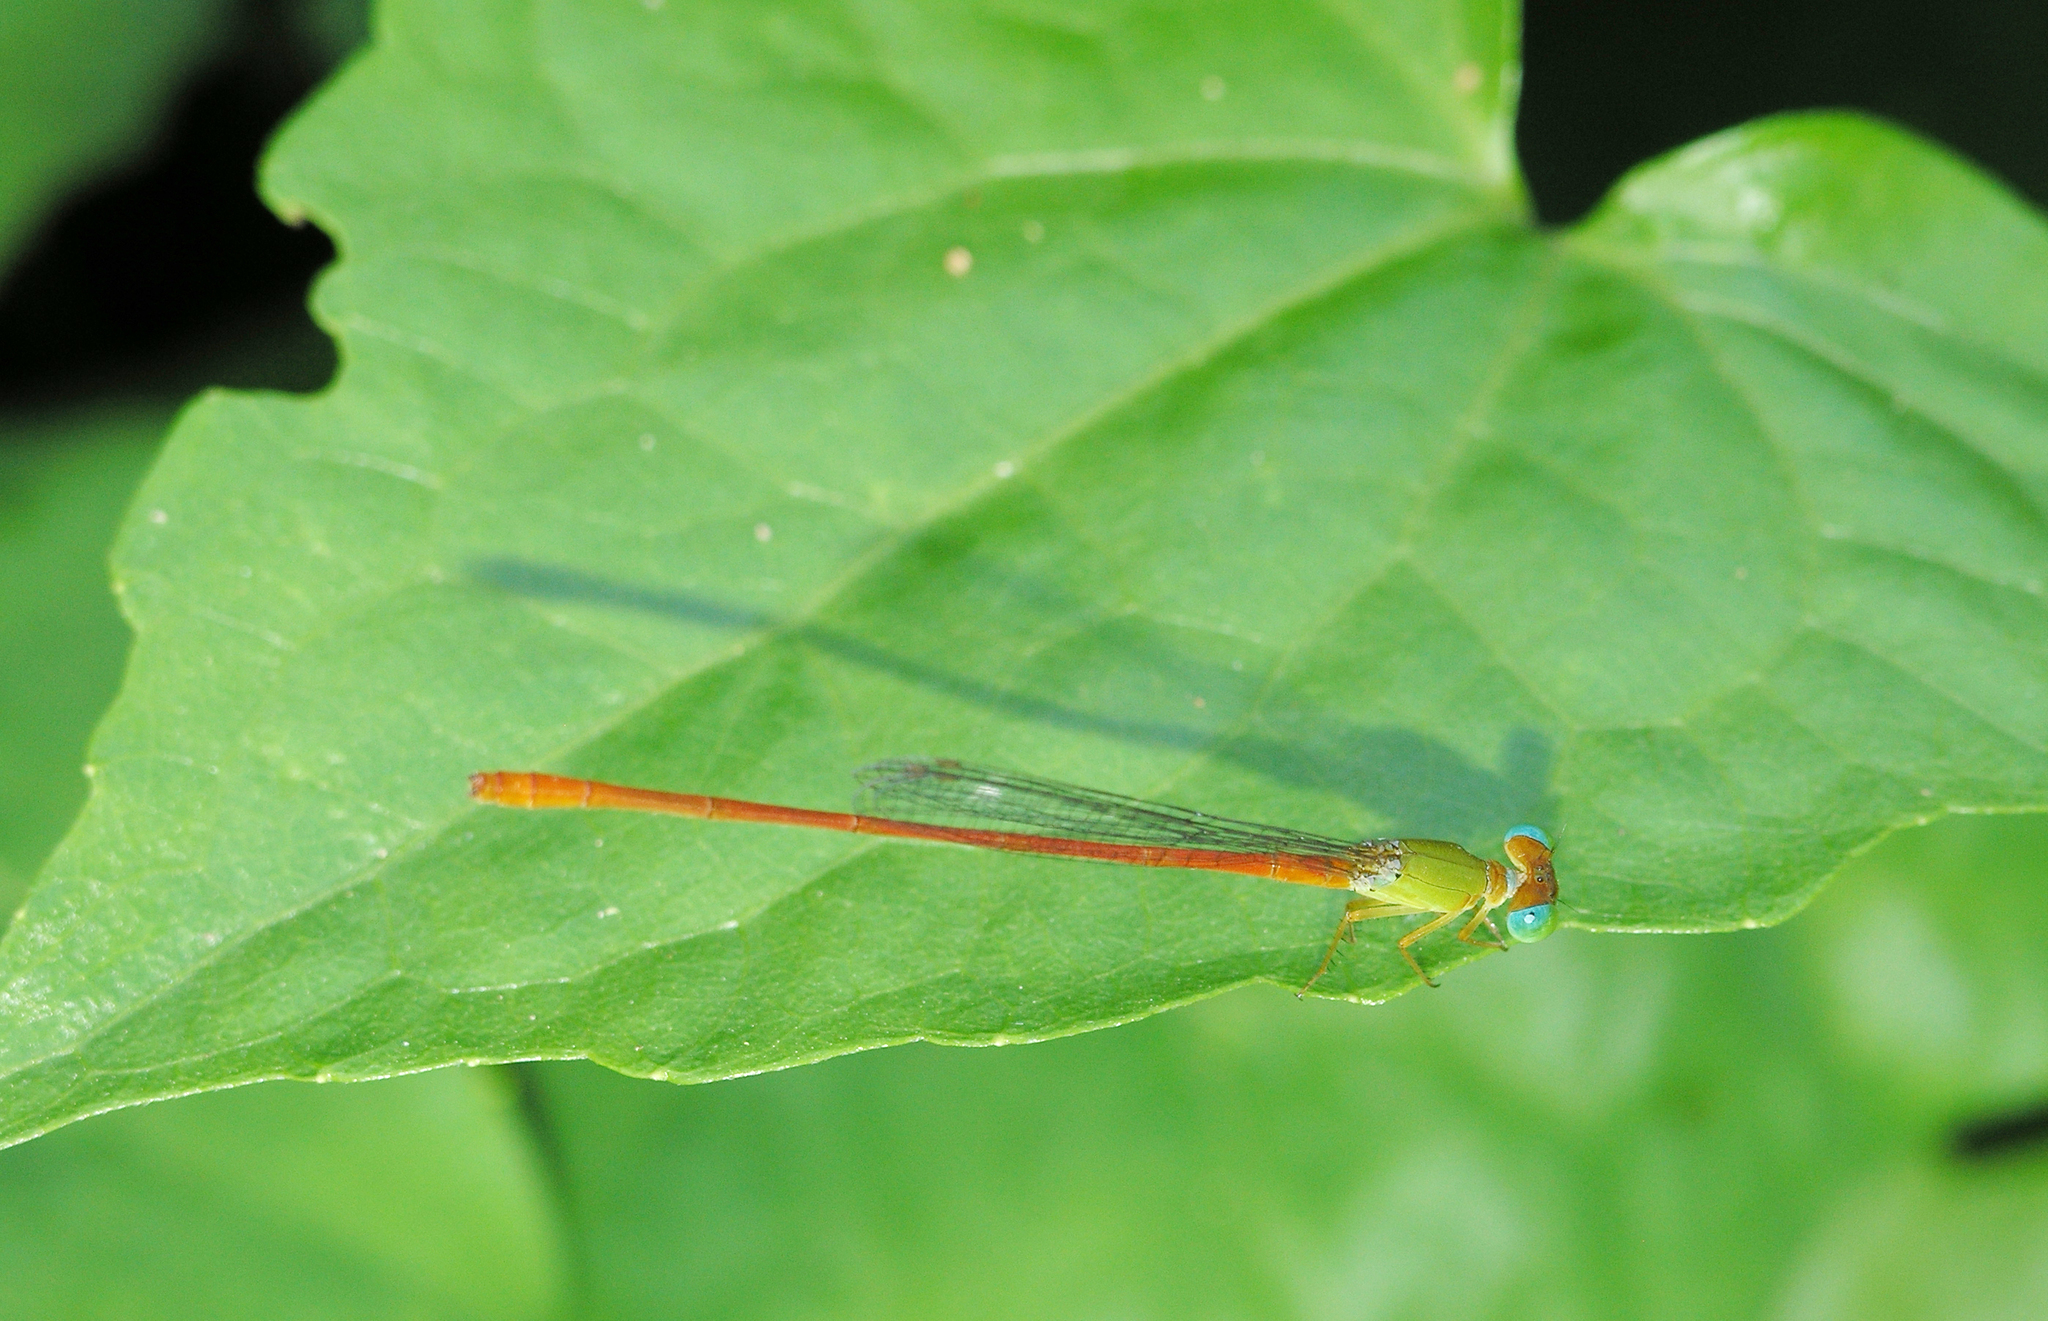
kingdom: Animalia
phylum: Arthropoda
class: Insecta
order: Odonata
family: Coenagrionidae
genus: Ceriagrion
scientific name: Ceriagrion auranticum
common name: Orange-tailed sprite
